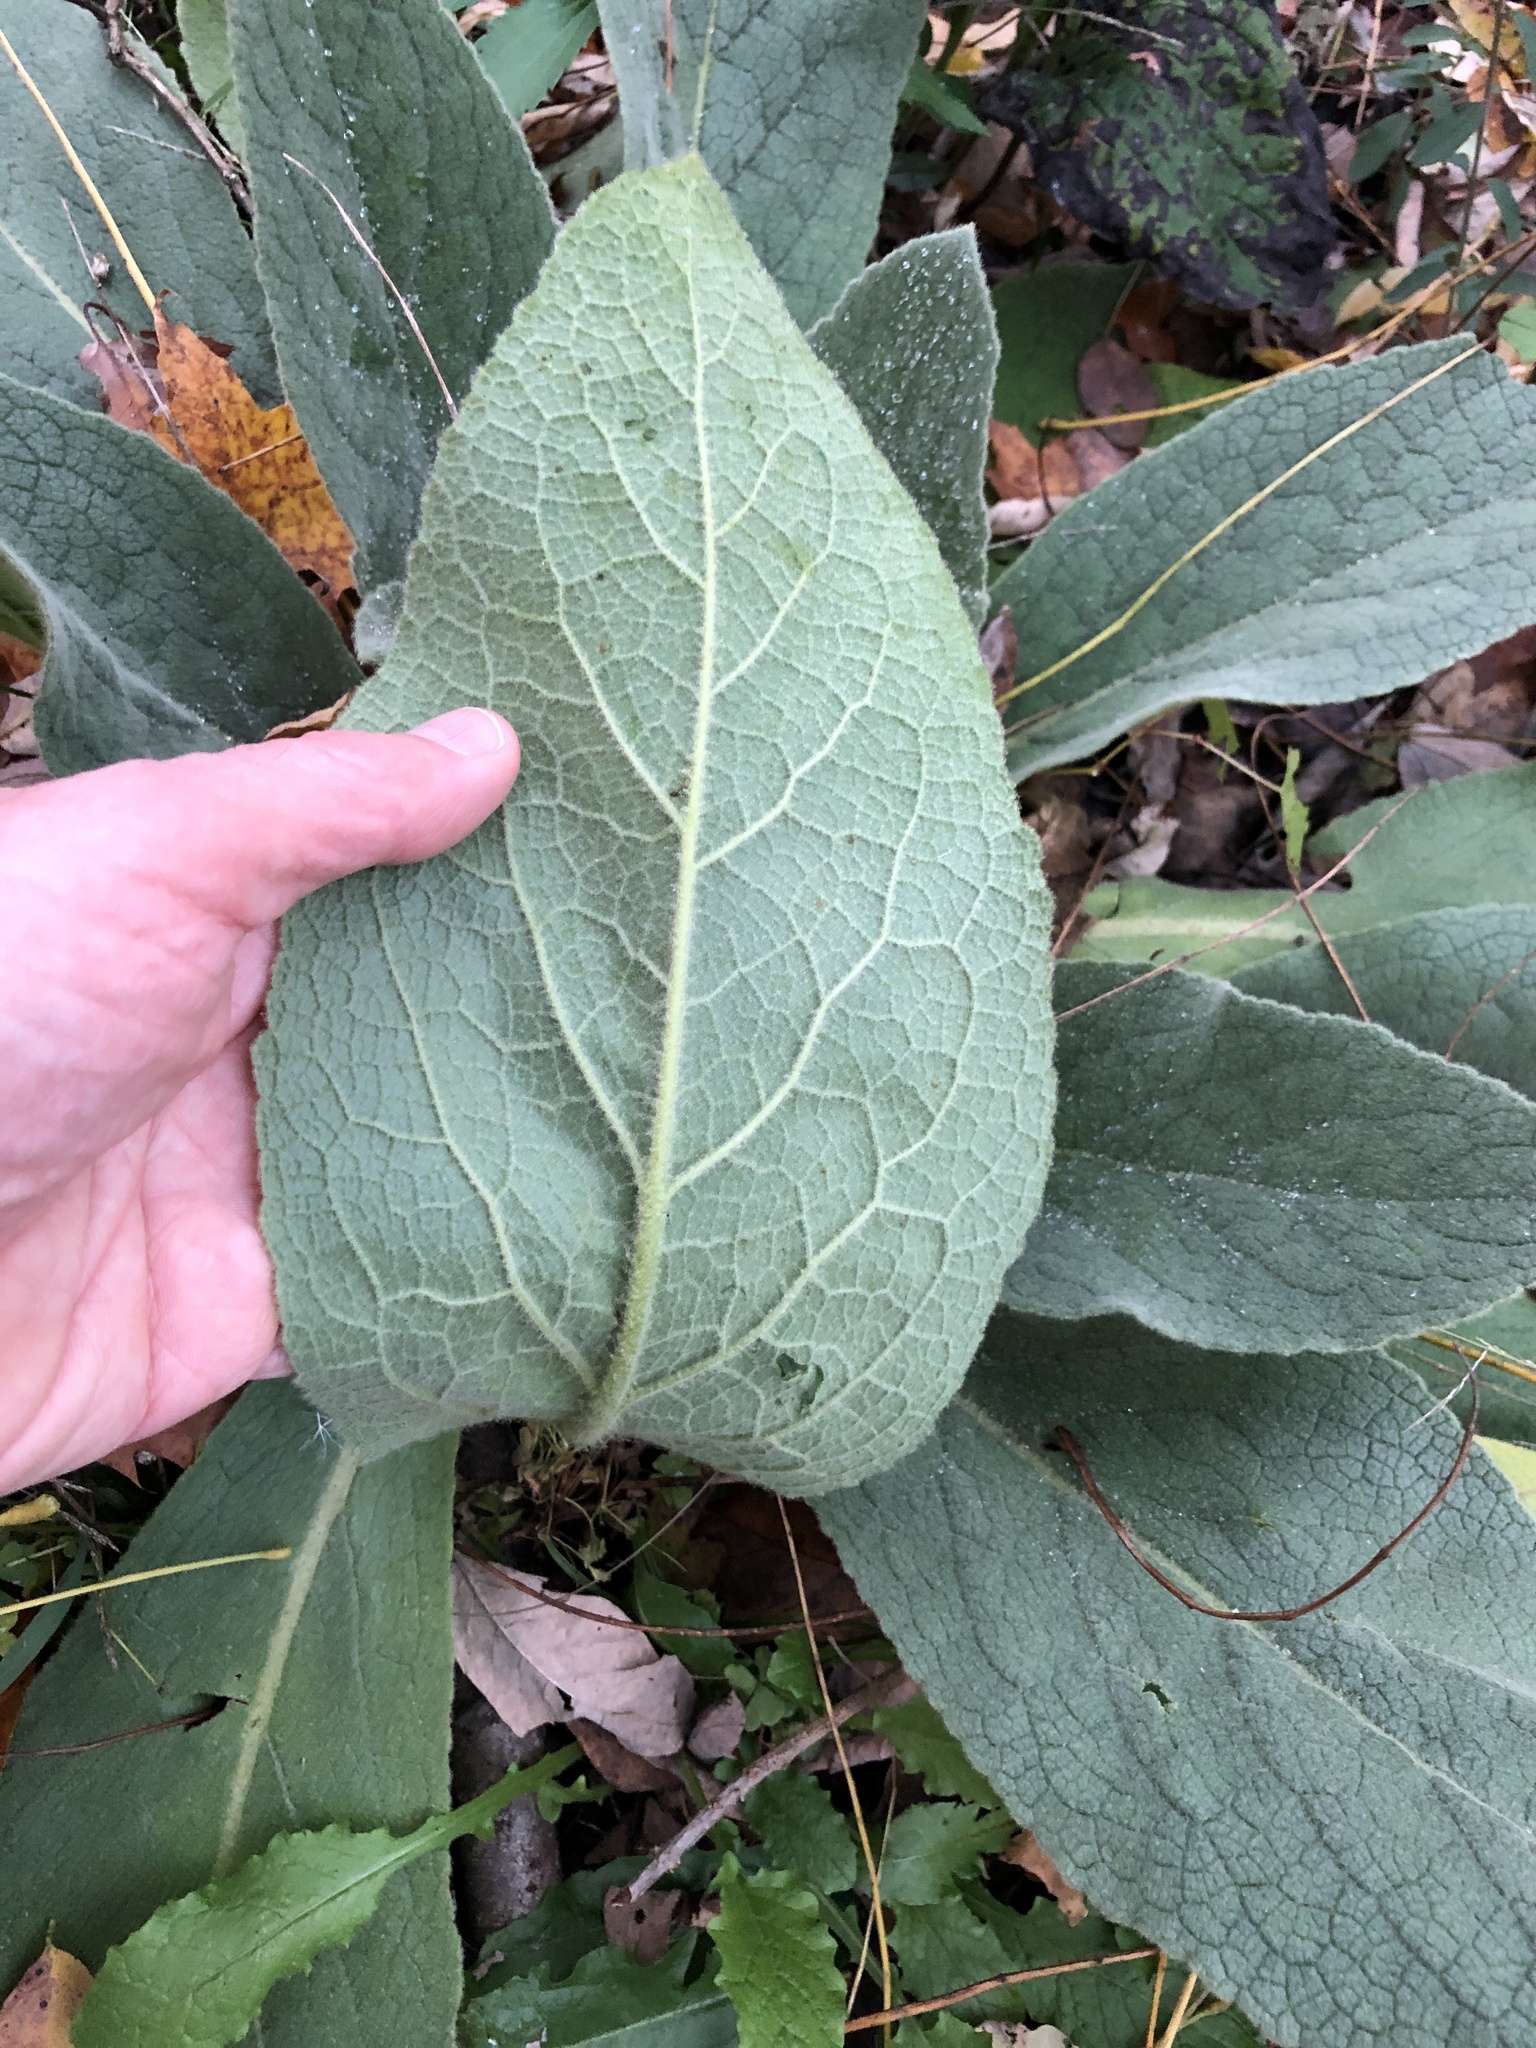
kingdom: Plantae
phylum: Tracheophyta
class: Magnoliopsida
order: Lamiales
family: Scrophulariaceae
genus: Verbascum
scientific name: Verbascum thapsus
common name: Common mullein
